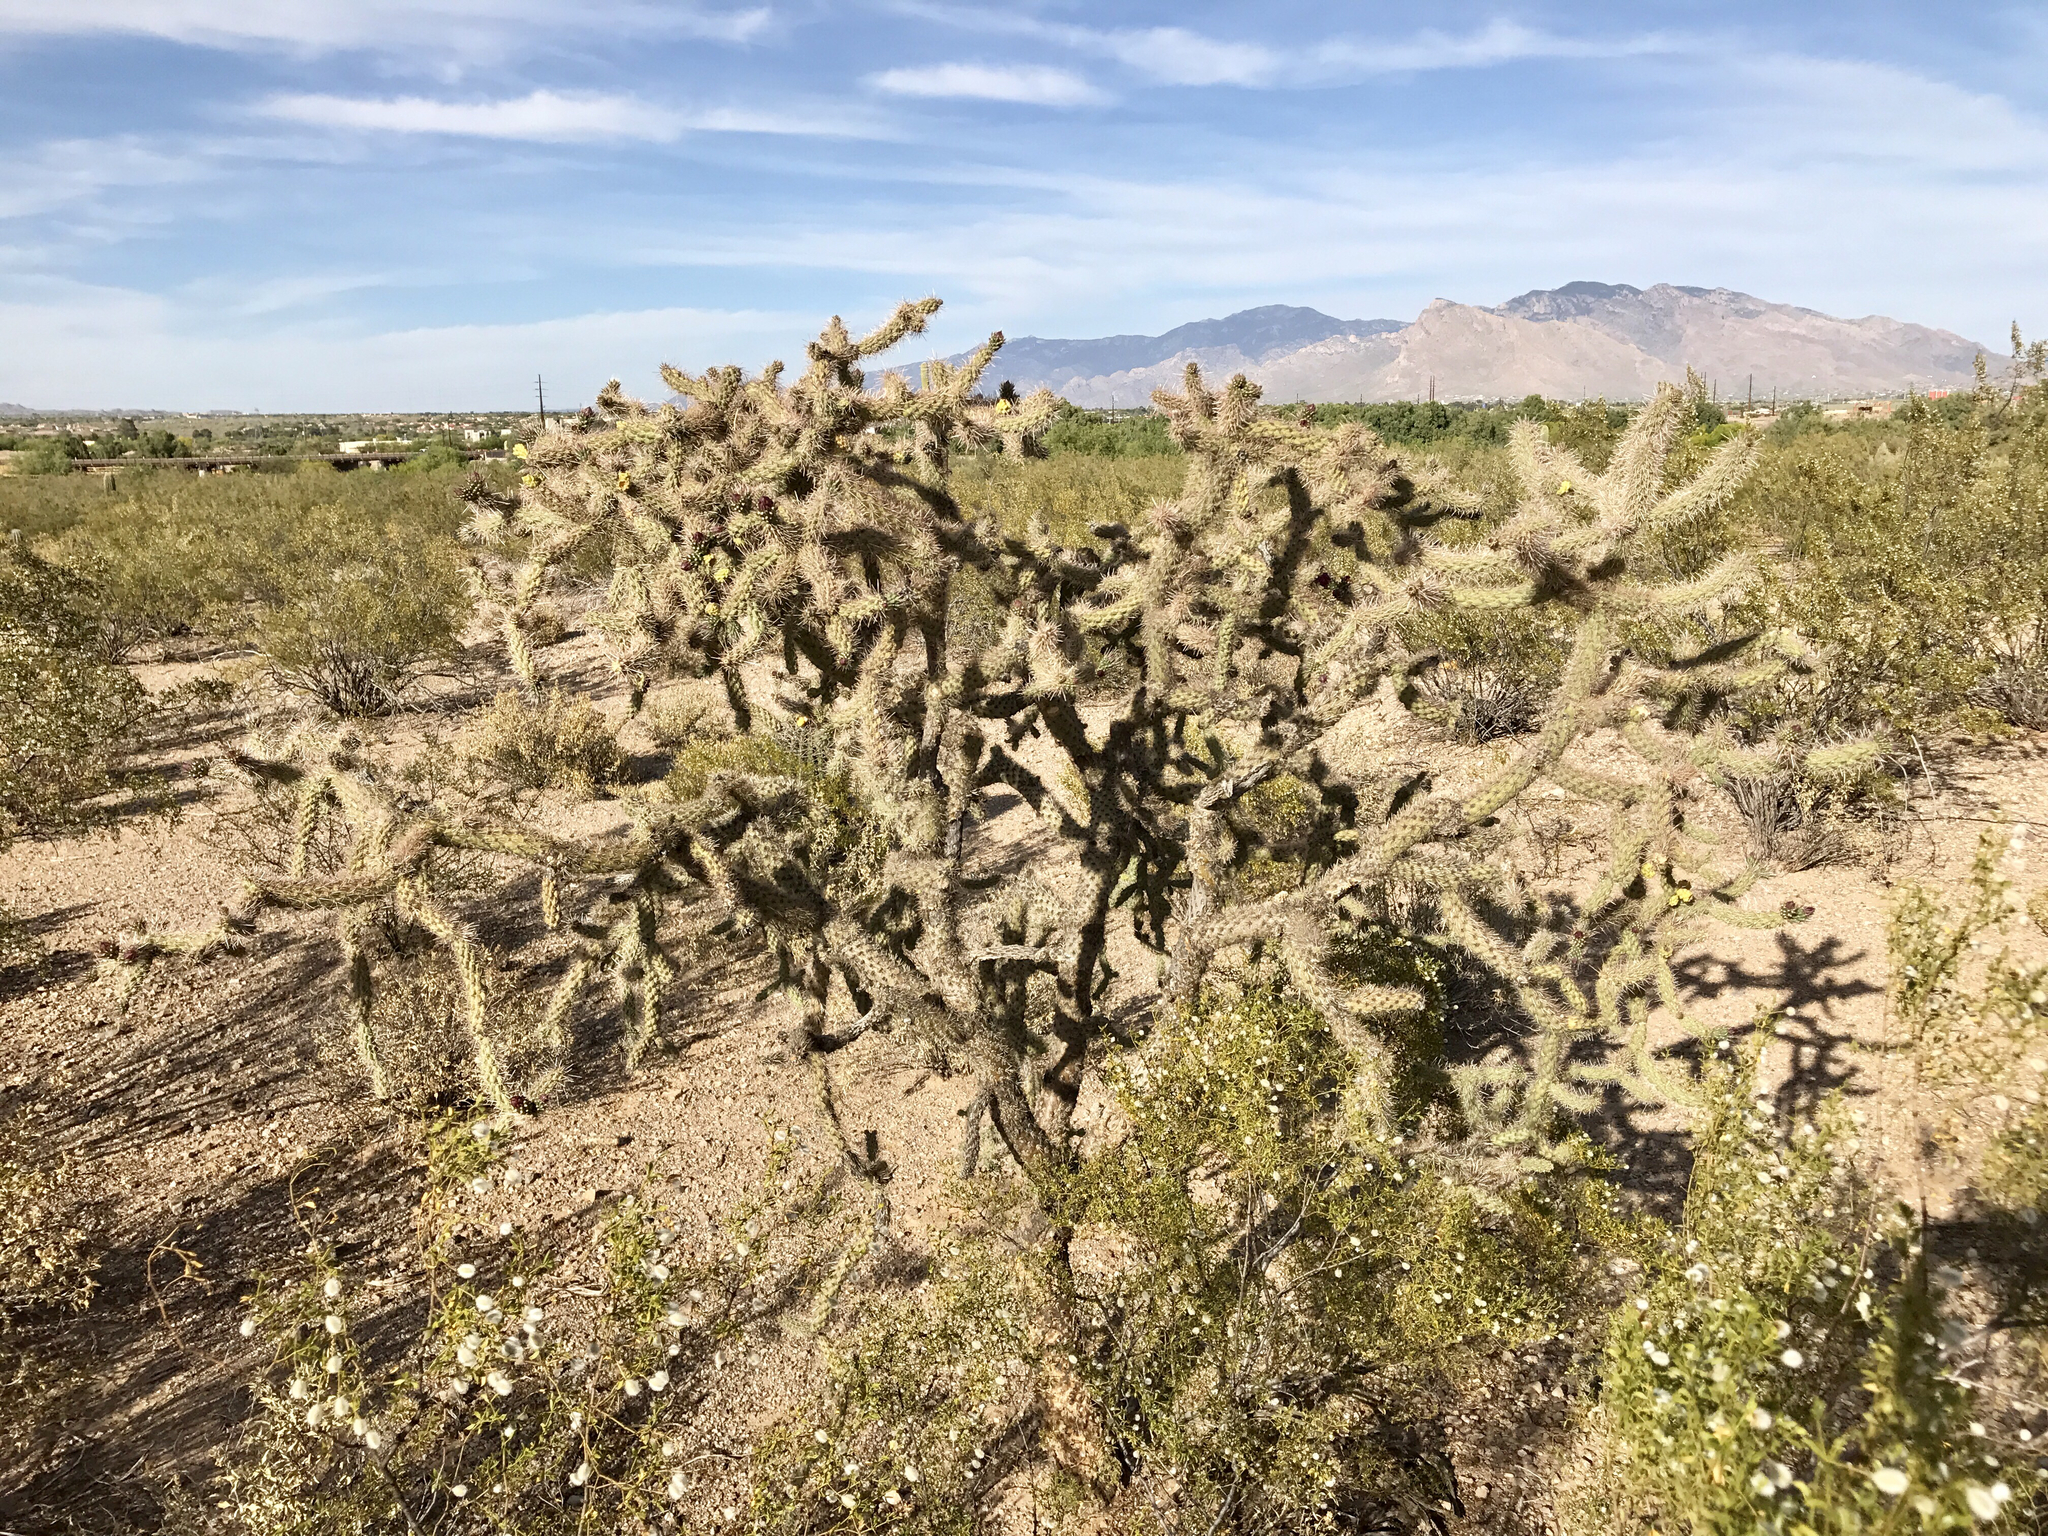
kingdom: Plantae
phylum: Tracheophyta
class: Magnoliopsida
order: Caryophyllales
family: Cactaceae
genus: Cylindropuntia
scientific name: Cylindropuntia imbricata
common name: Candelabrum cactus
